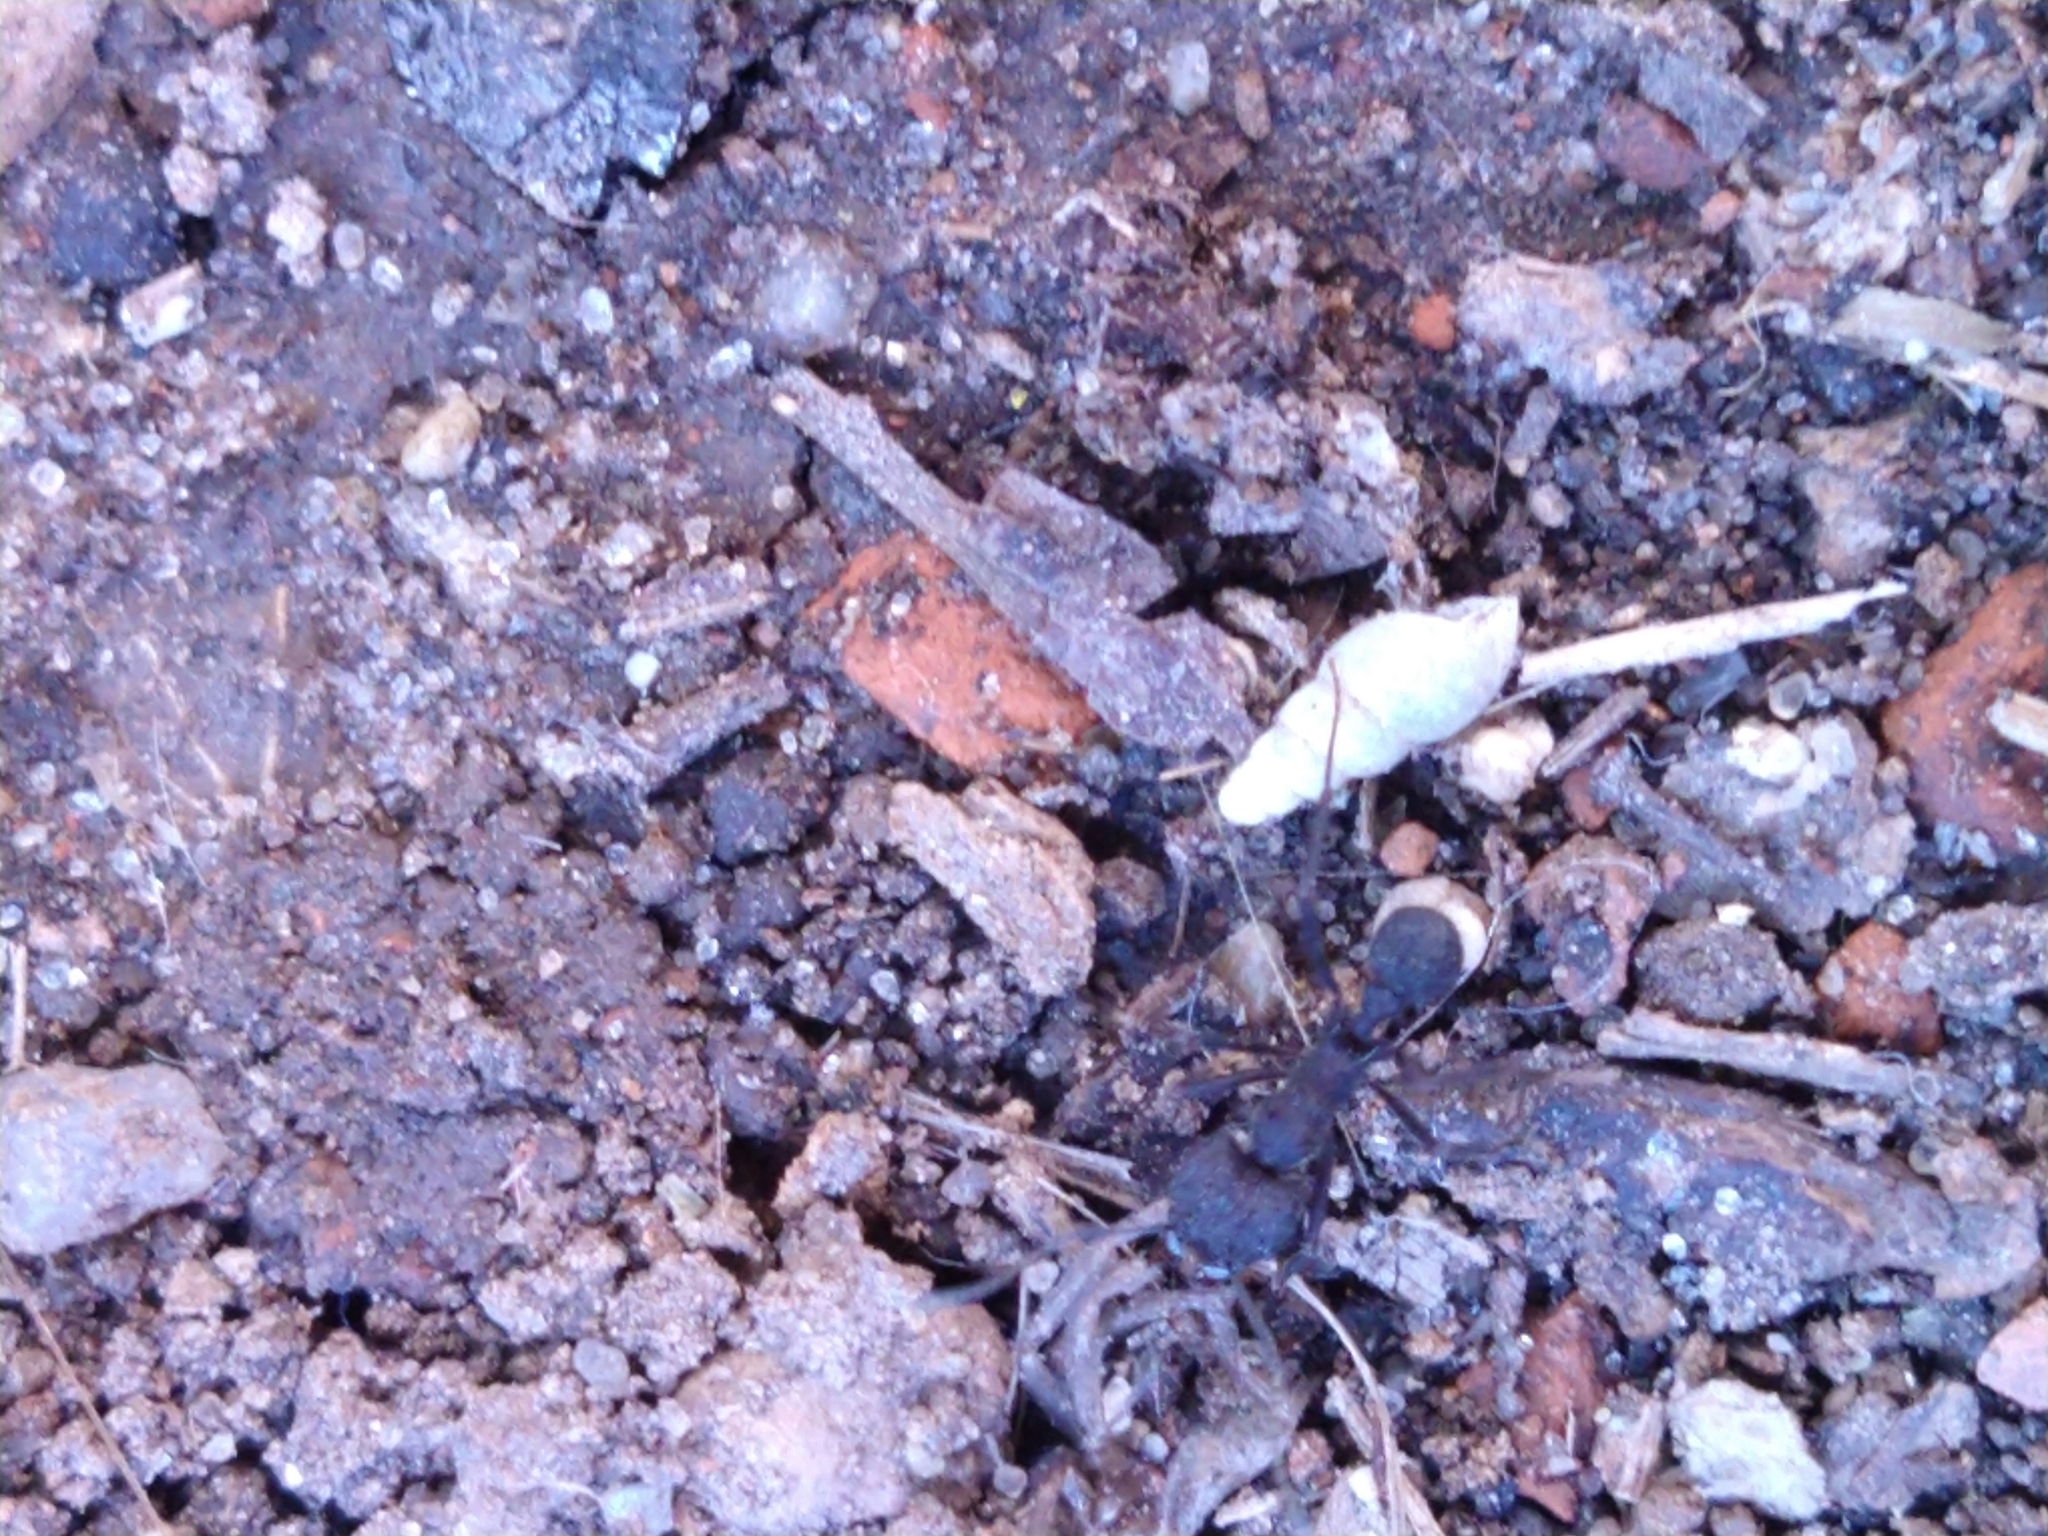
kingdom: Animalia
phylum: Arthropoda
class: Insecta
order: Hymenoptera
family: Formicidae
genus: Acromyrmex
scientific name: Acromyrmex
